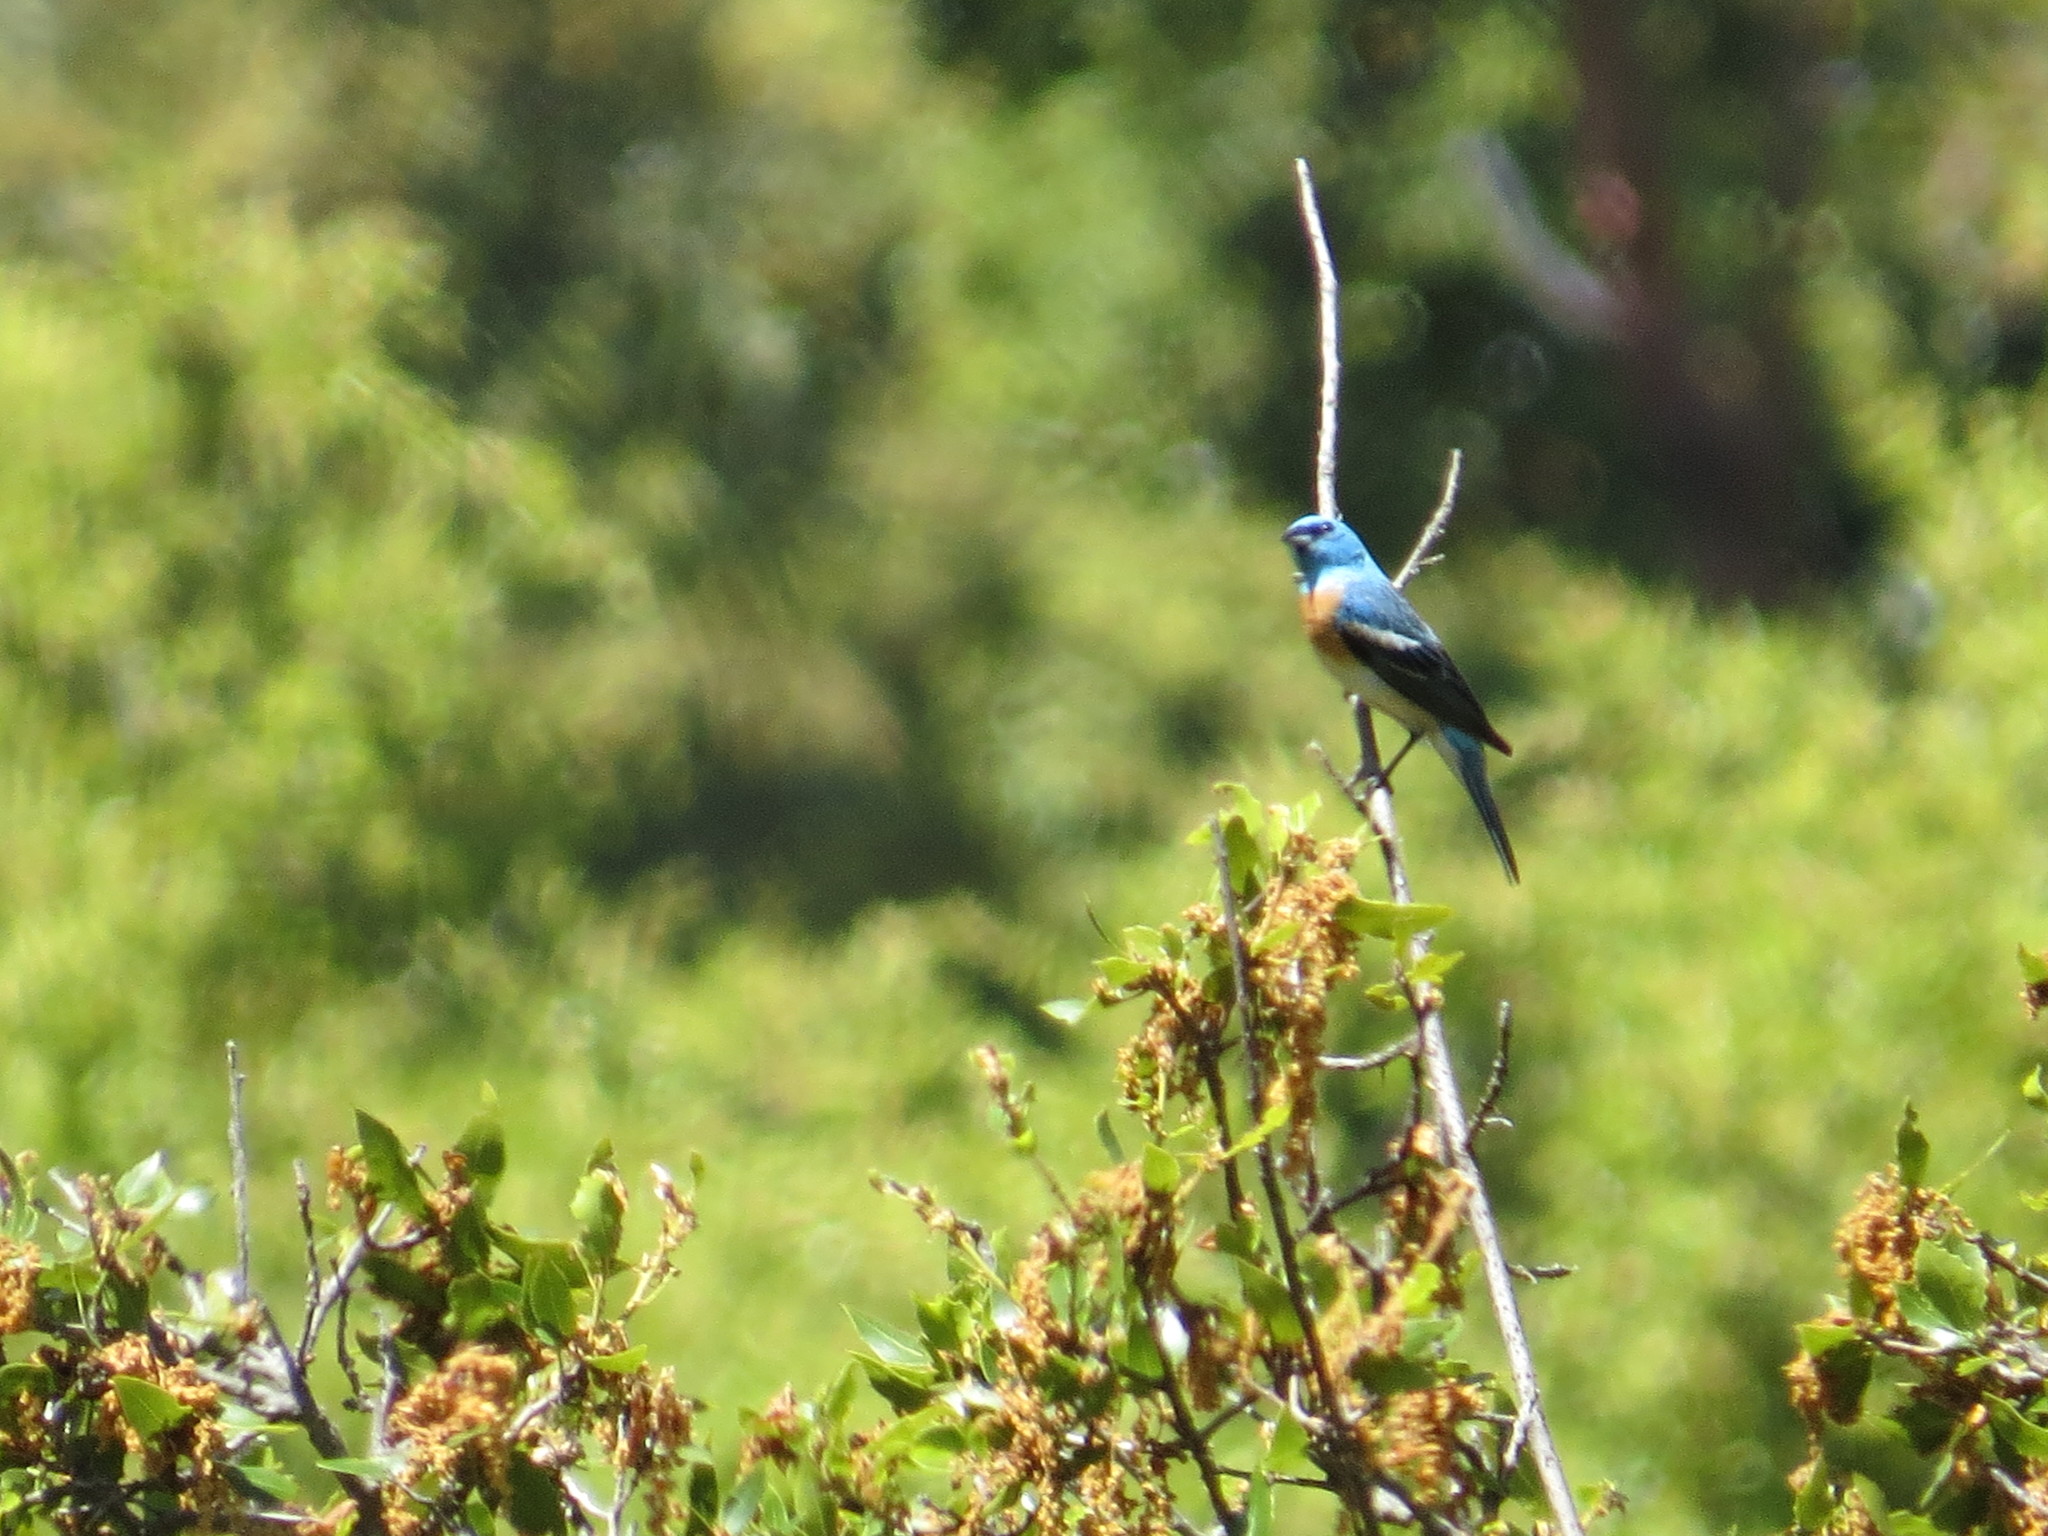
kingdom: Animalia
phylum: Chordata
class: Aves
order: Passeriformes
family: Cardinalidae
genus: Passerina
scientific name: Passerina amoena
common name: Lazuli bunting
